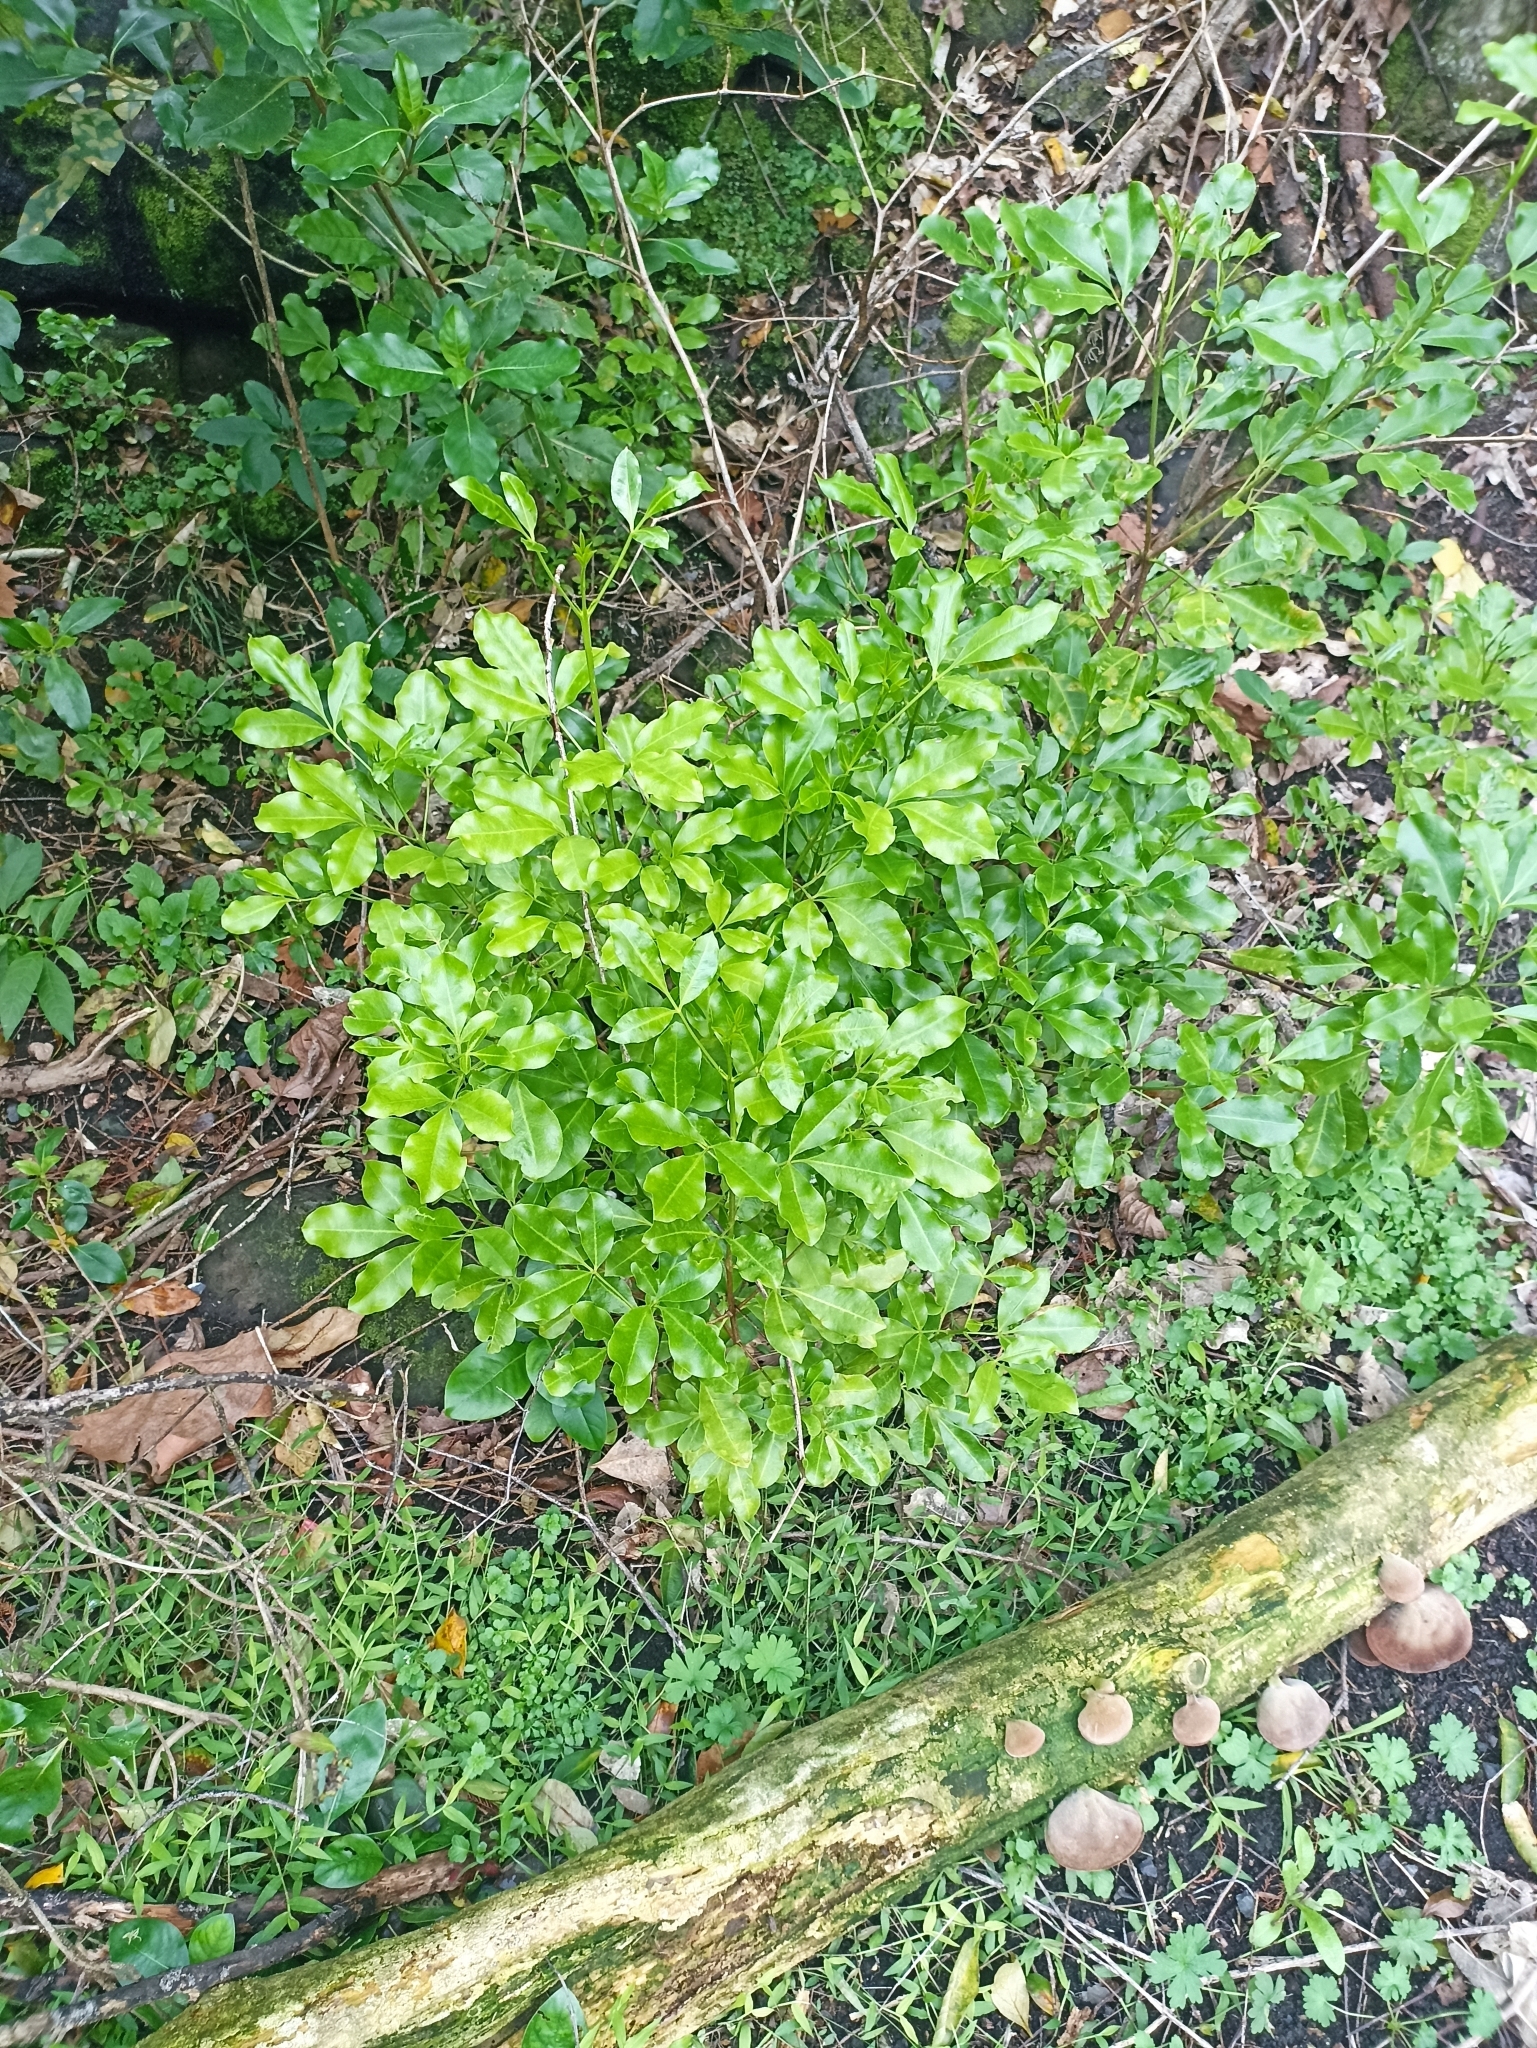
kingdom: Plantae
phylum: Tracheophyta
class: Magnoliopsida
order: Sapindales
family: Rutaceae
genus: Melicope
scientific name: Melicope ternata
